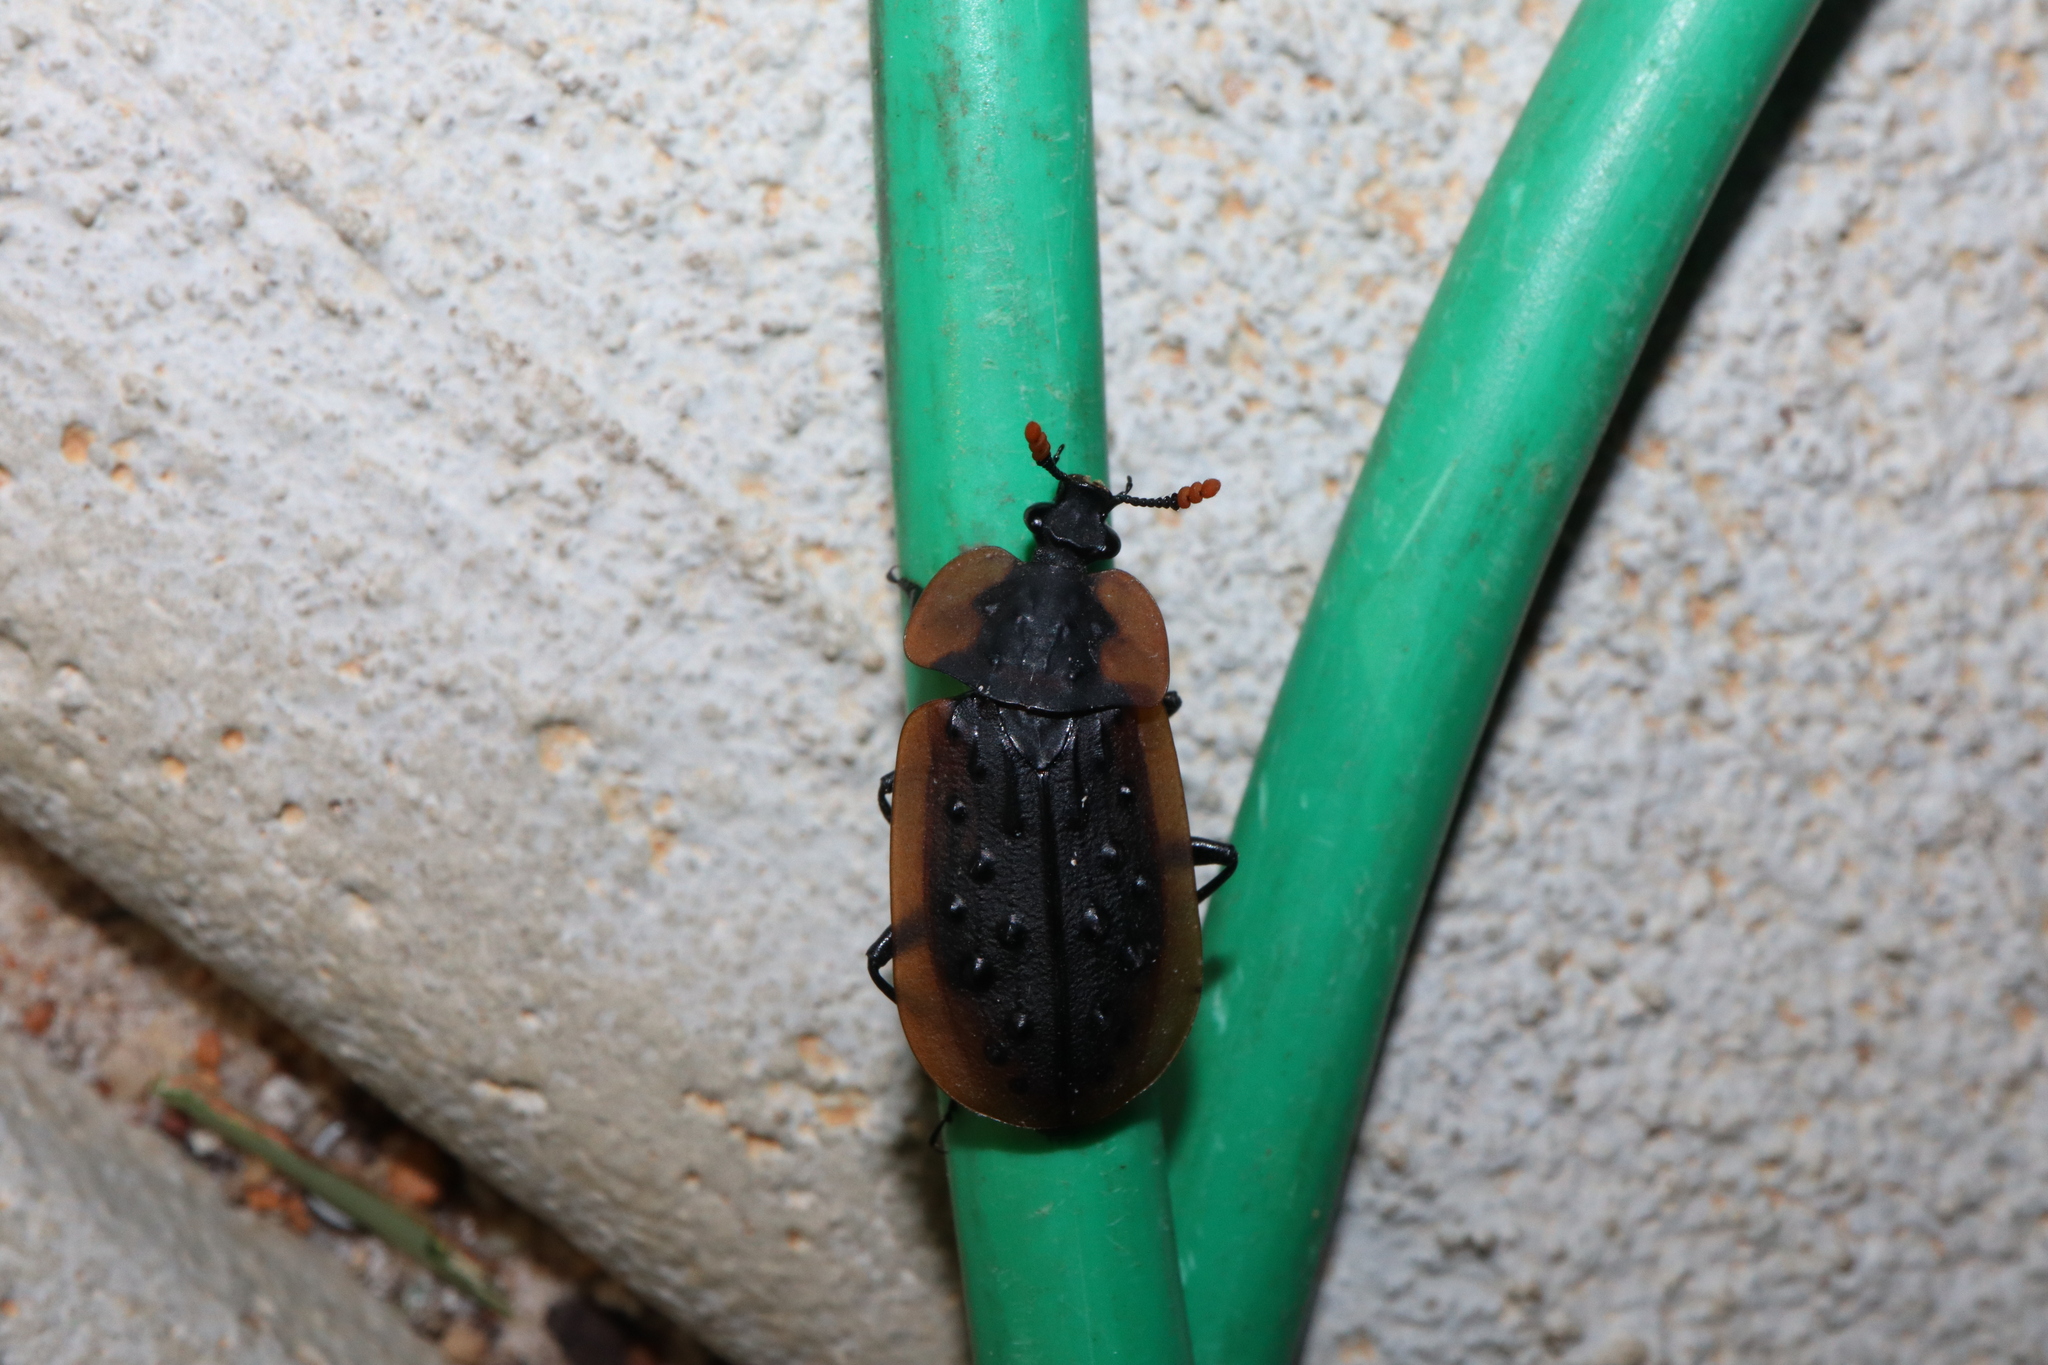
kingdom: Animalia
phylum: Arthropoda
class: Insecta
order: Coleoptera
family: Staphylinidae
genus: Ptomaphila
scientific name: Ptomaphila lacrymosa
